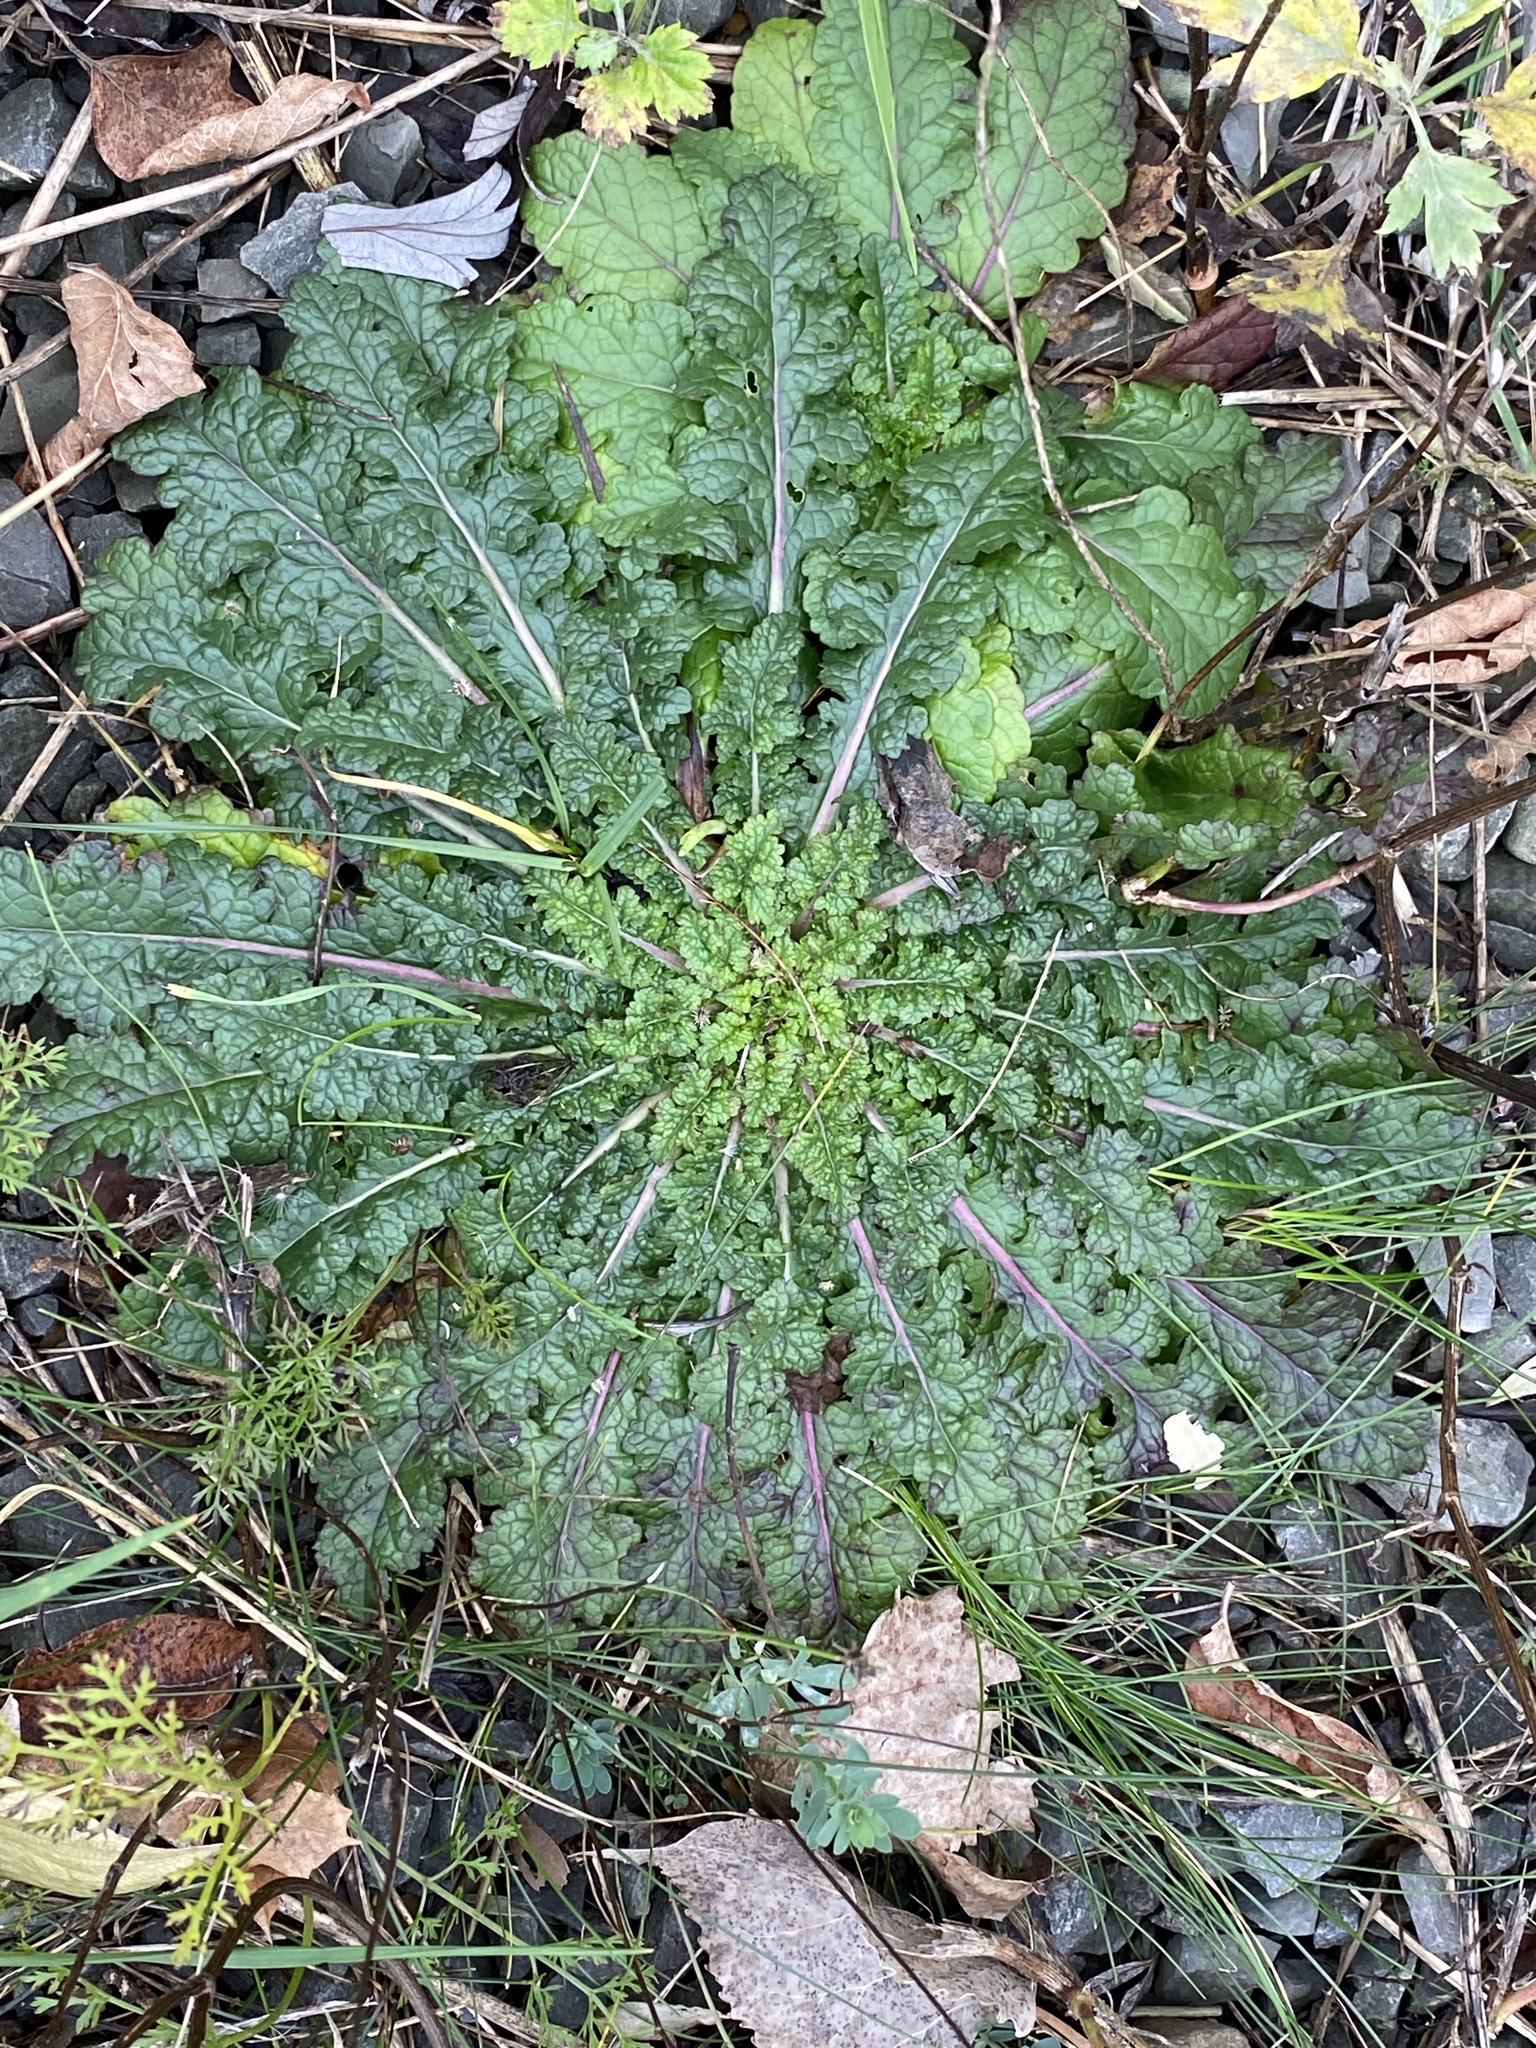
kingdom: Plantae
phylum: Tracheophyta
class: Magnoliopsida
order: Lamiales
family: Scrophulariaceae
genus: Verbascum
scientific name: Verbascum blattaria
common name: Moth mullein
